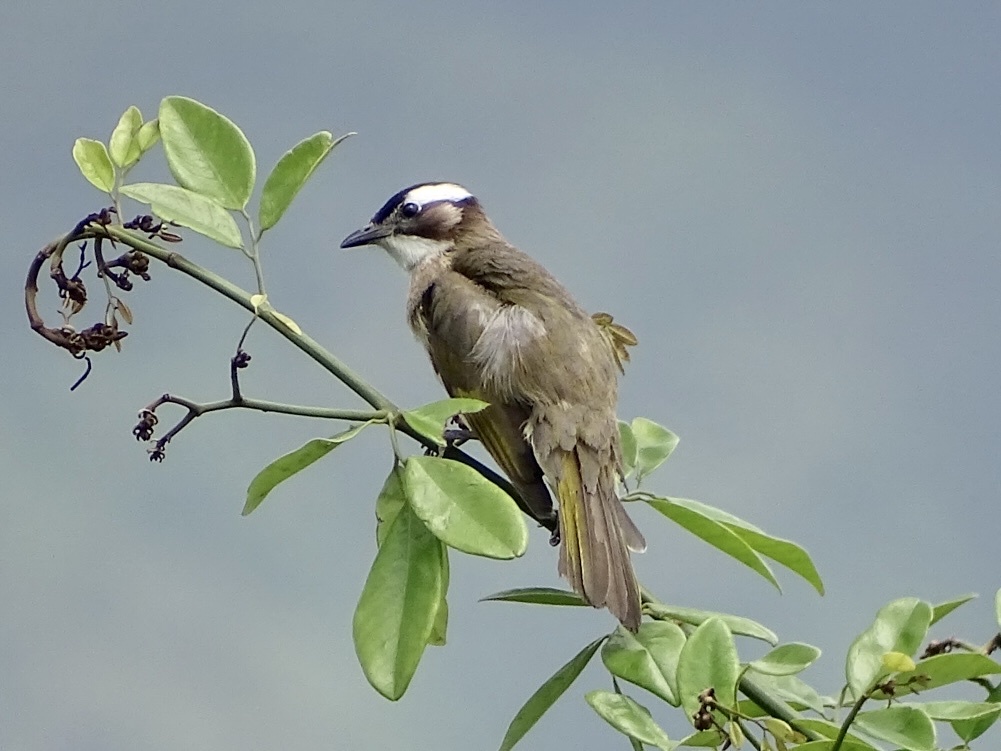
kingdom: Animalia
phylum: Chordata
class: Aves
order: Passeriformes
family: Pycnonotidae
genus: Pycnonotus
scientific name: Pycnonotus sinensis
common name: Light-vented bulbul
